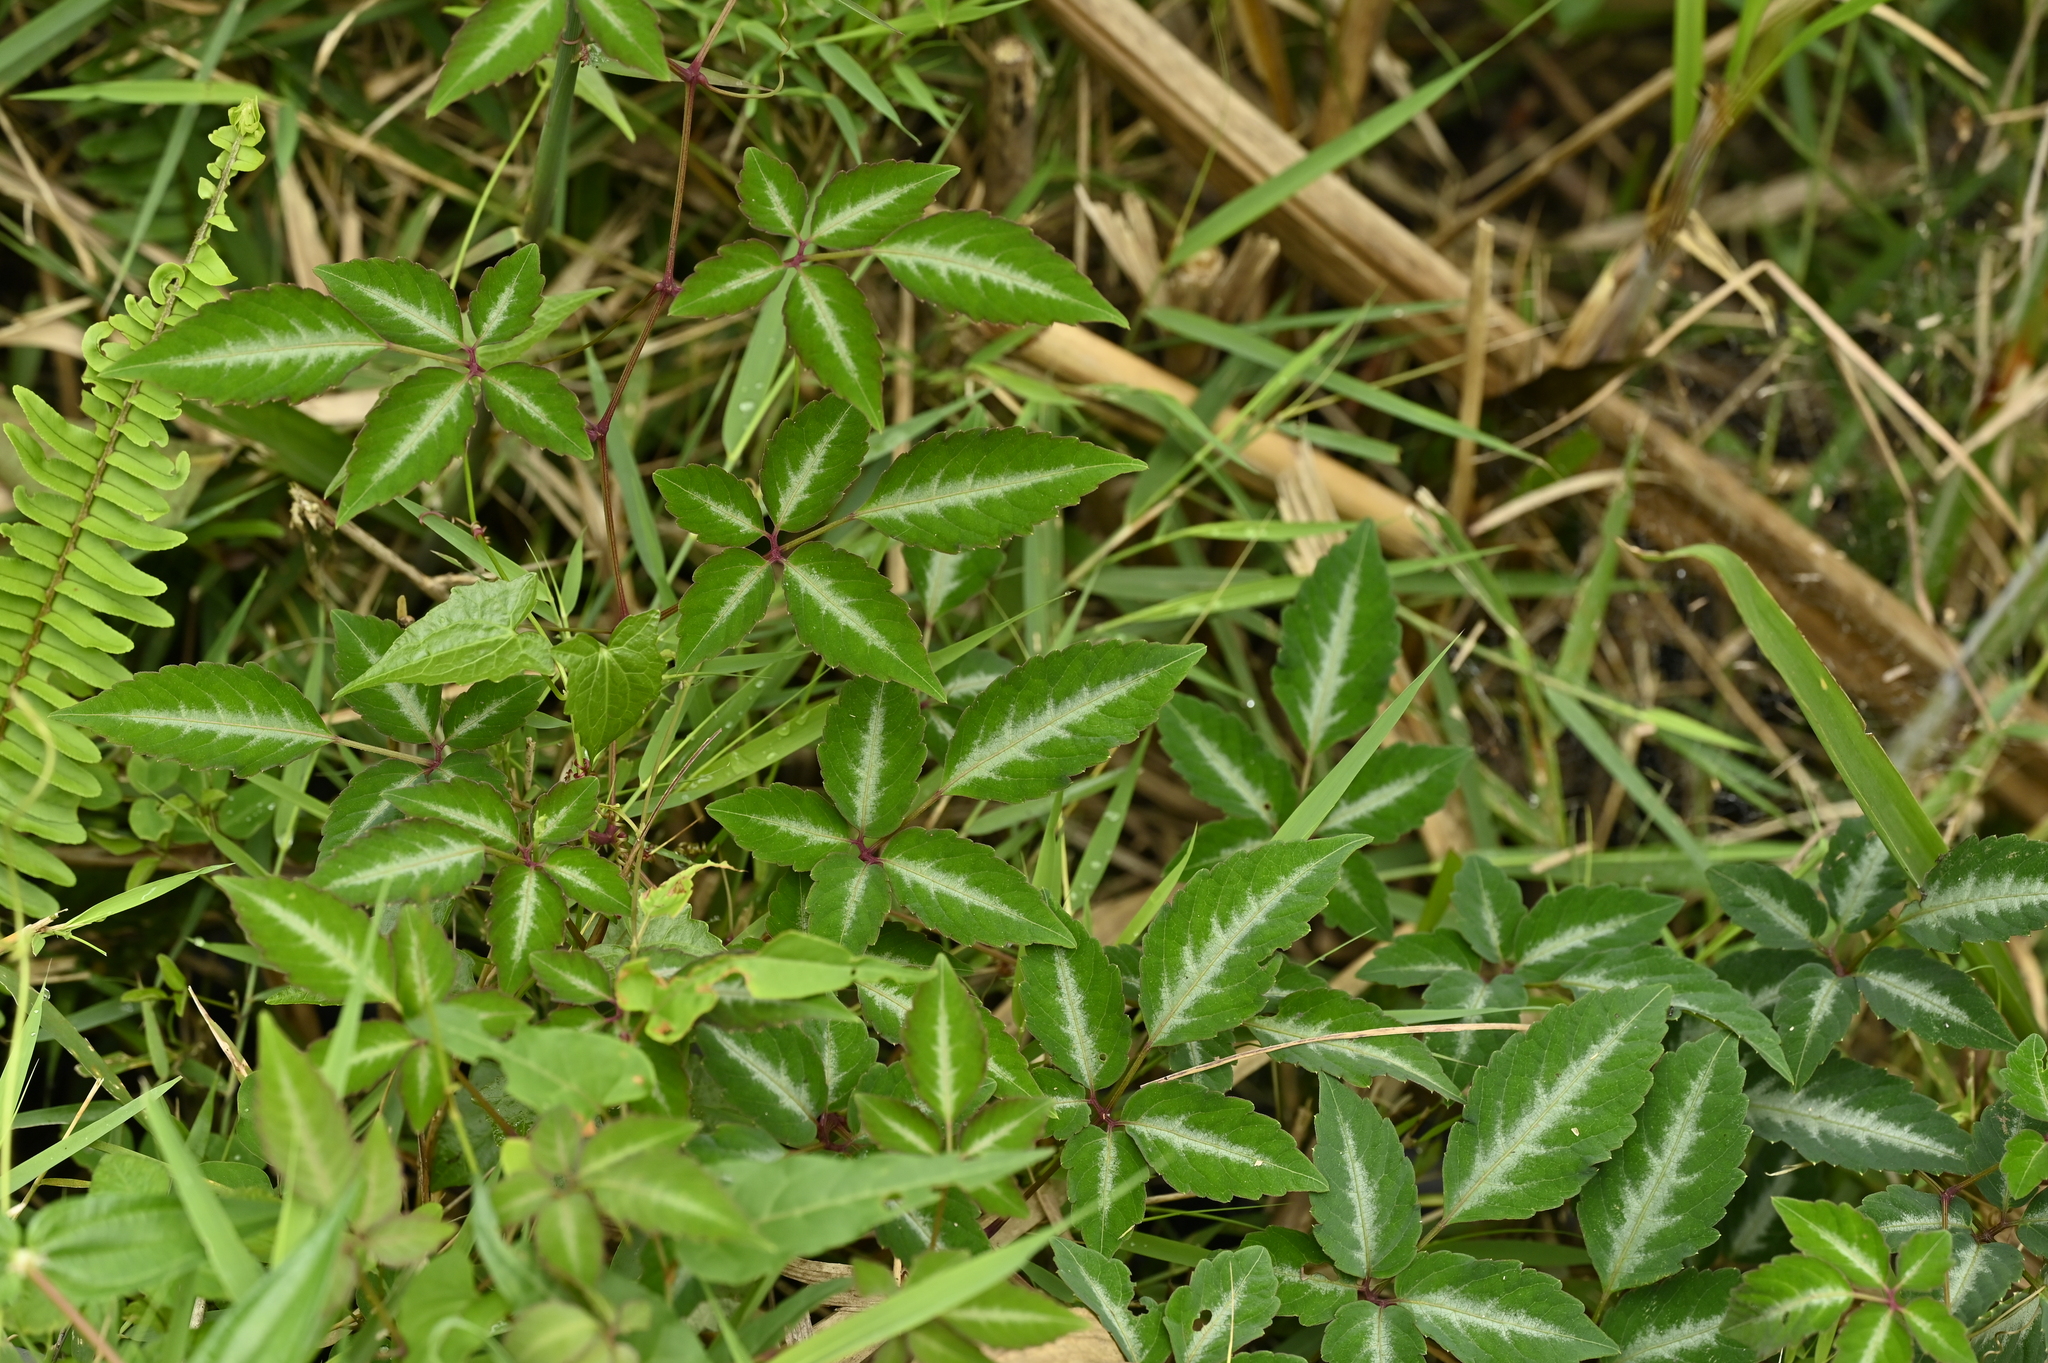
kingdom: Plantae
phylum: Tracheophyta
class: Magnoliopsida
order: Vitales
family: Vitaceae
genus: Pseudocayratia
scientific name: Pseudocayratia pengiana
